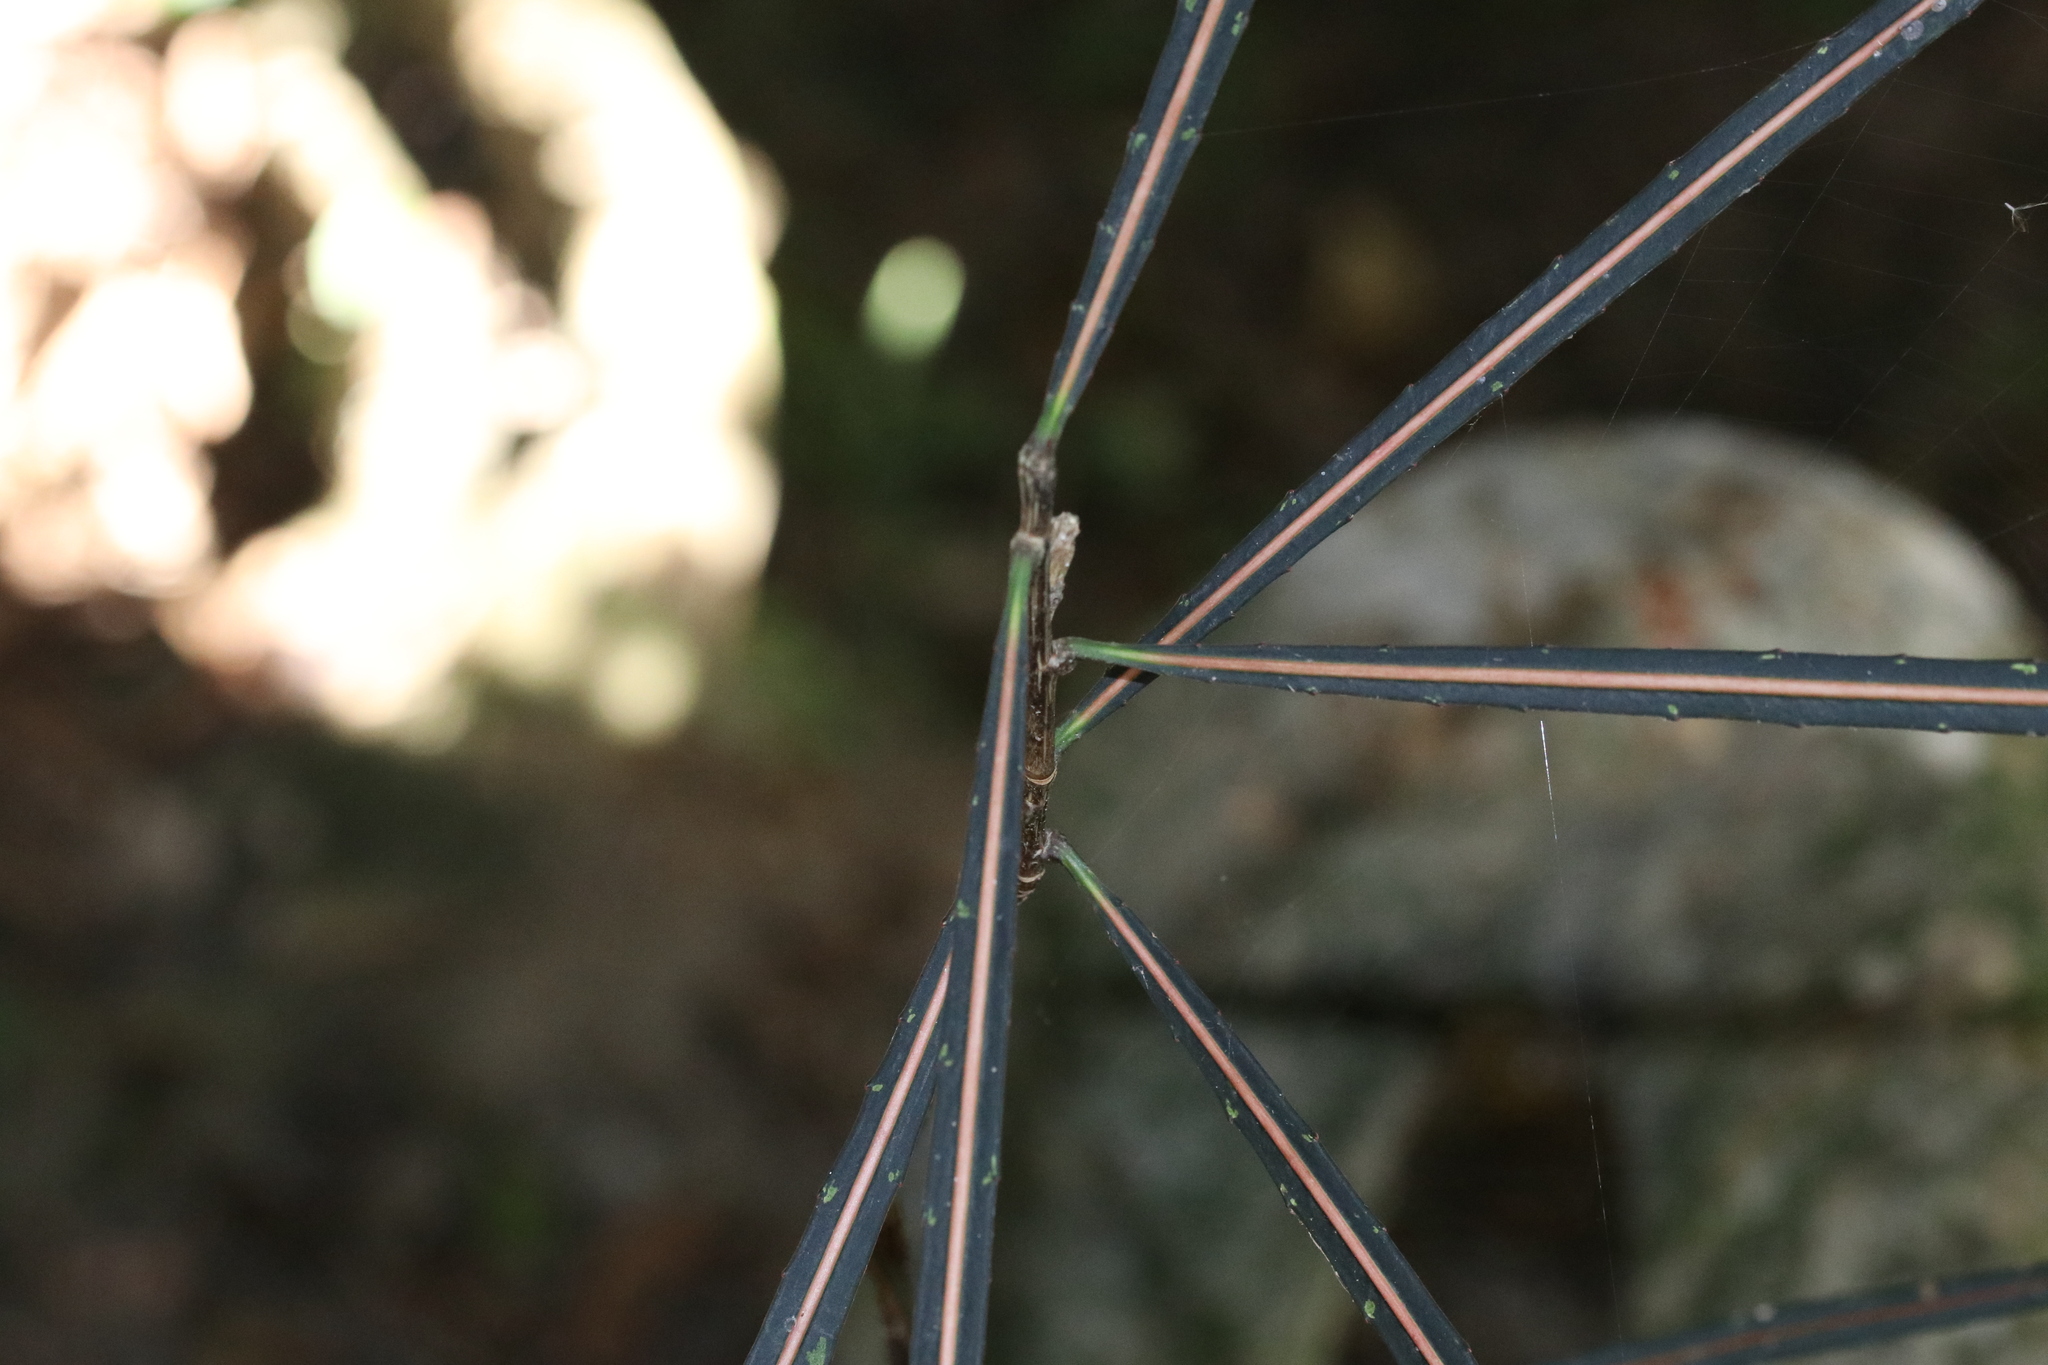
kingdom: Plantae
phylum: Tracheophyta
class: Magnoliopsida
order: Apiales
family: Araliaceae
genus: Pseudopanax
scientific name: Pseudopanax crassifolius
